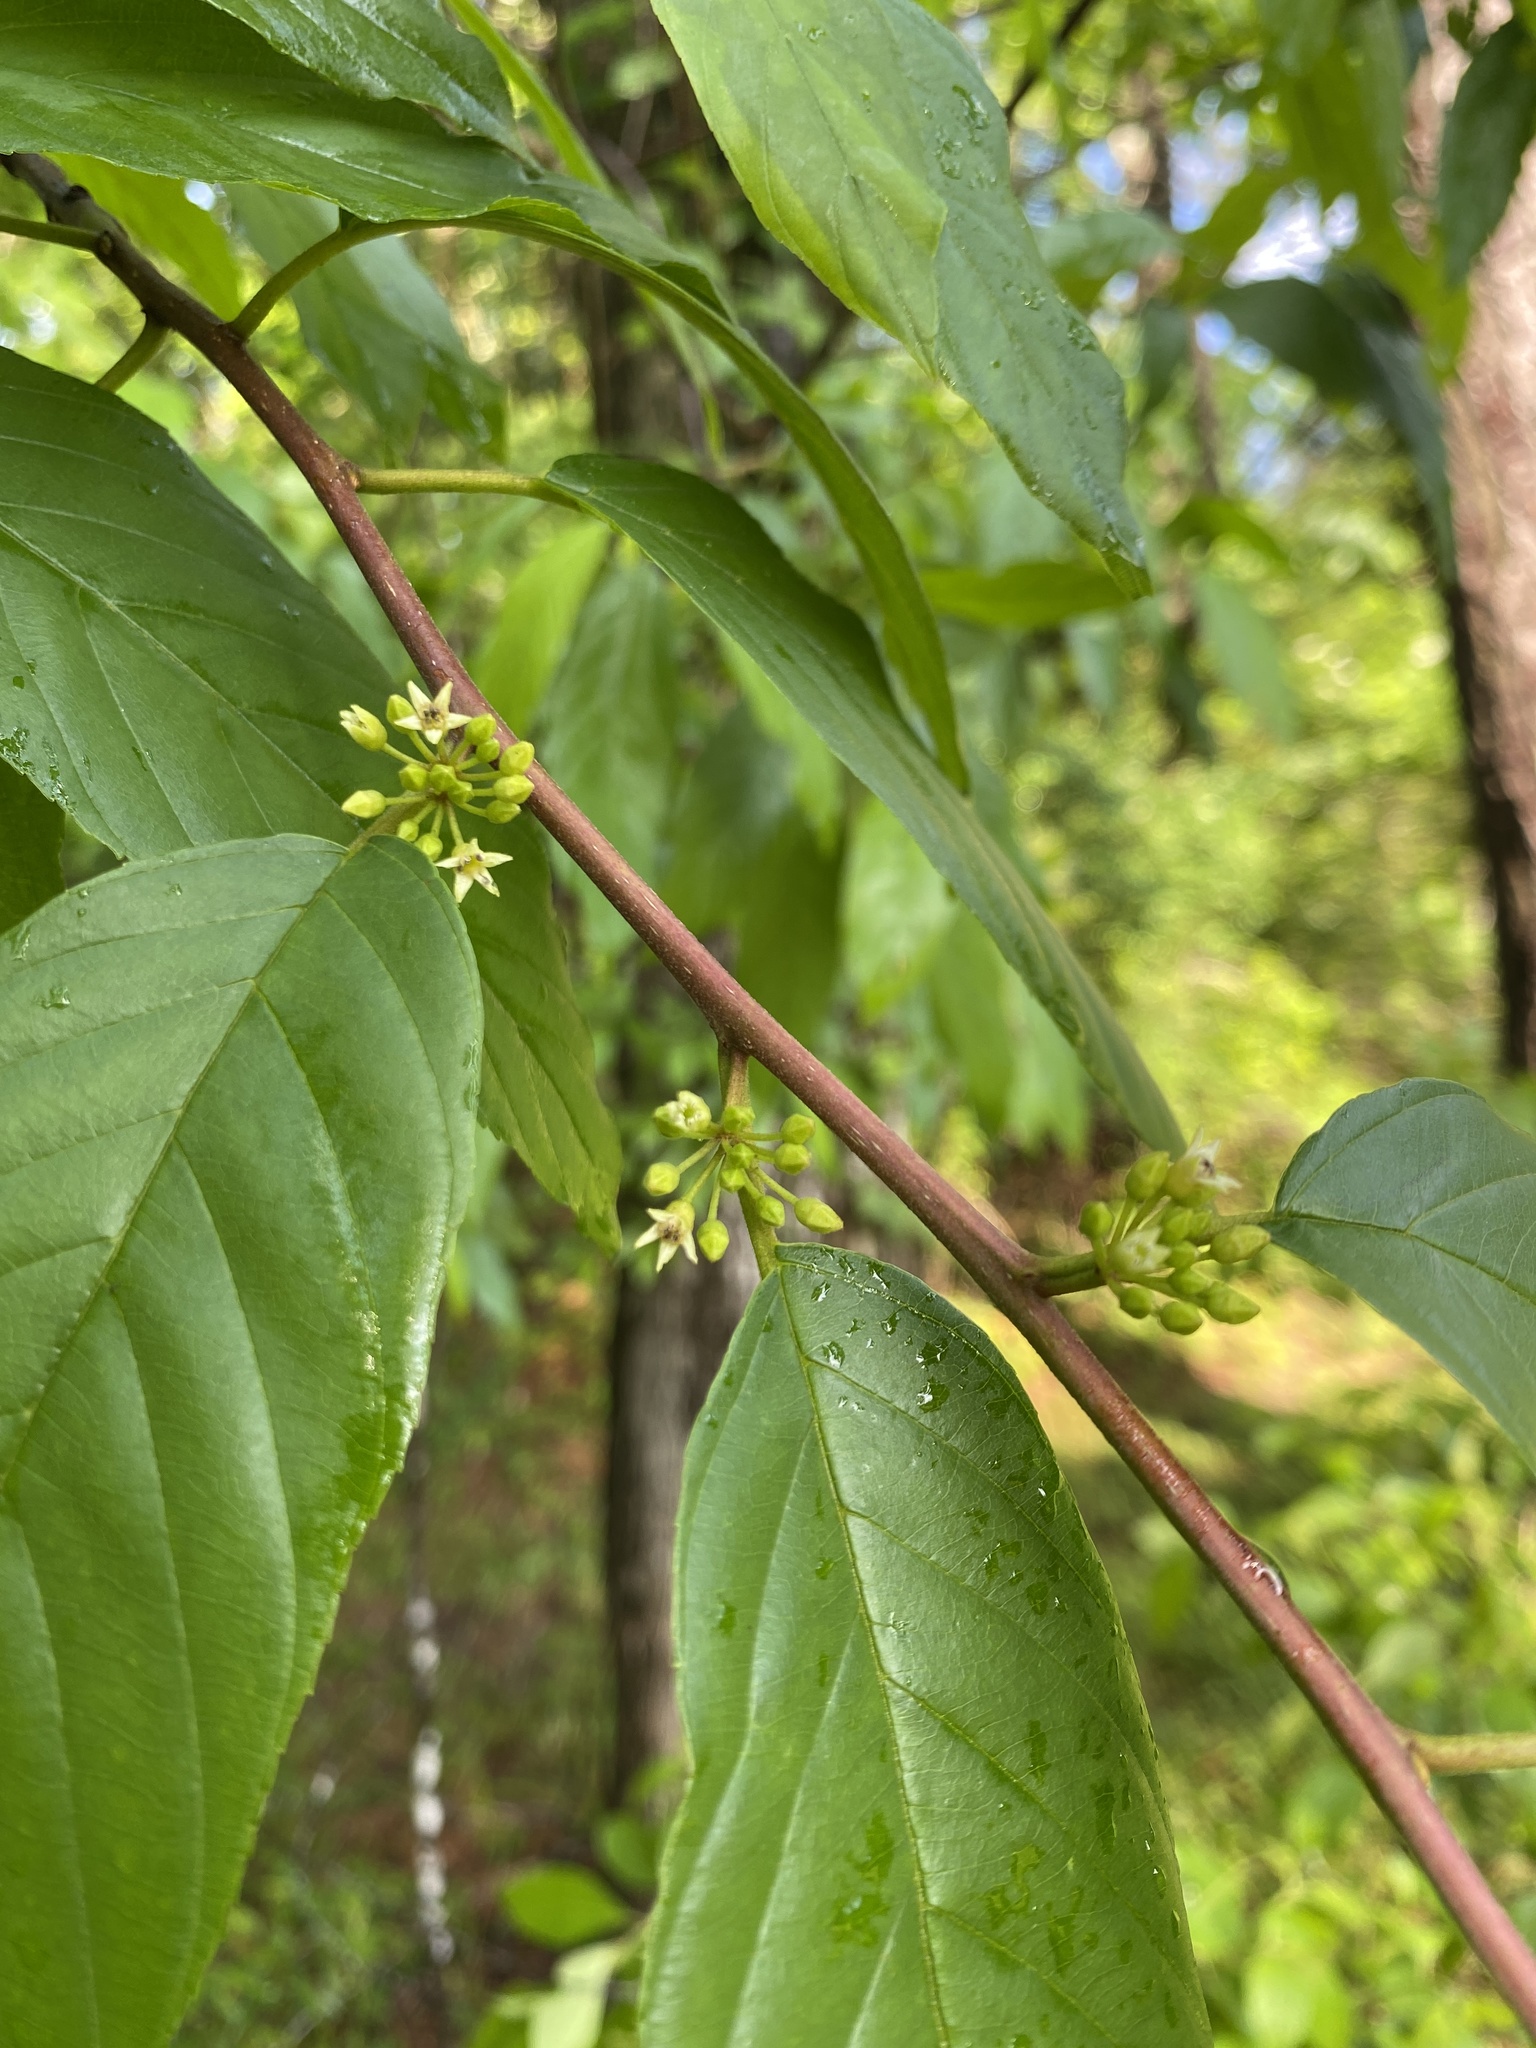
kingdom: Plantae
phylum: Tracheophyta
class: Magnoliopsida
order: Rosales
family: Rhamnaceae
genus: Frangula
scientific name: Frangula caroliniana
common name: Carolina buckthorn
